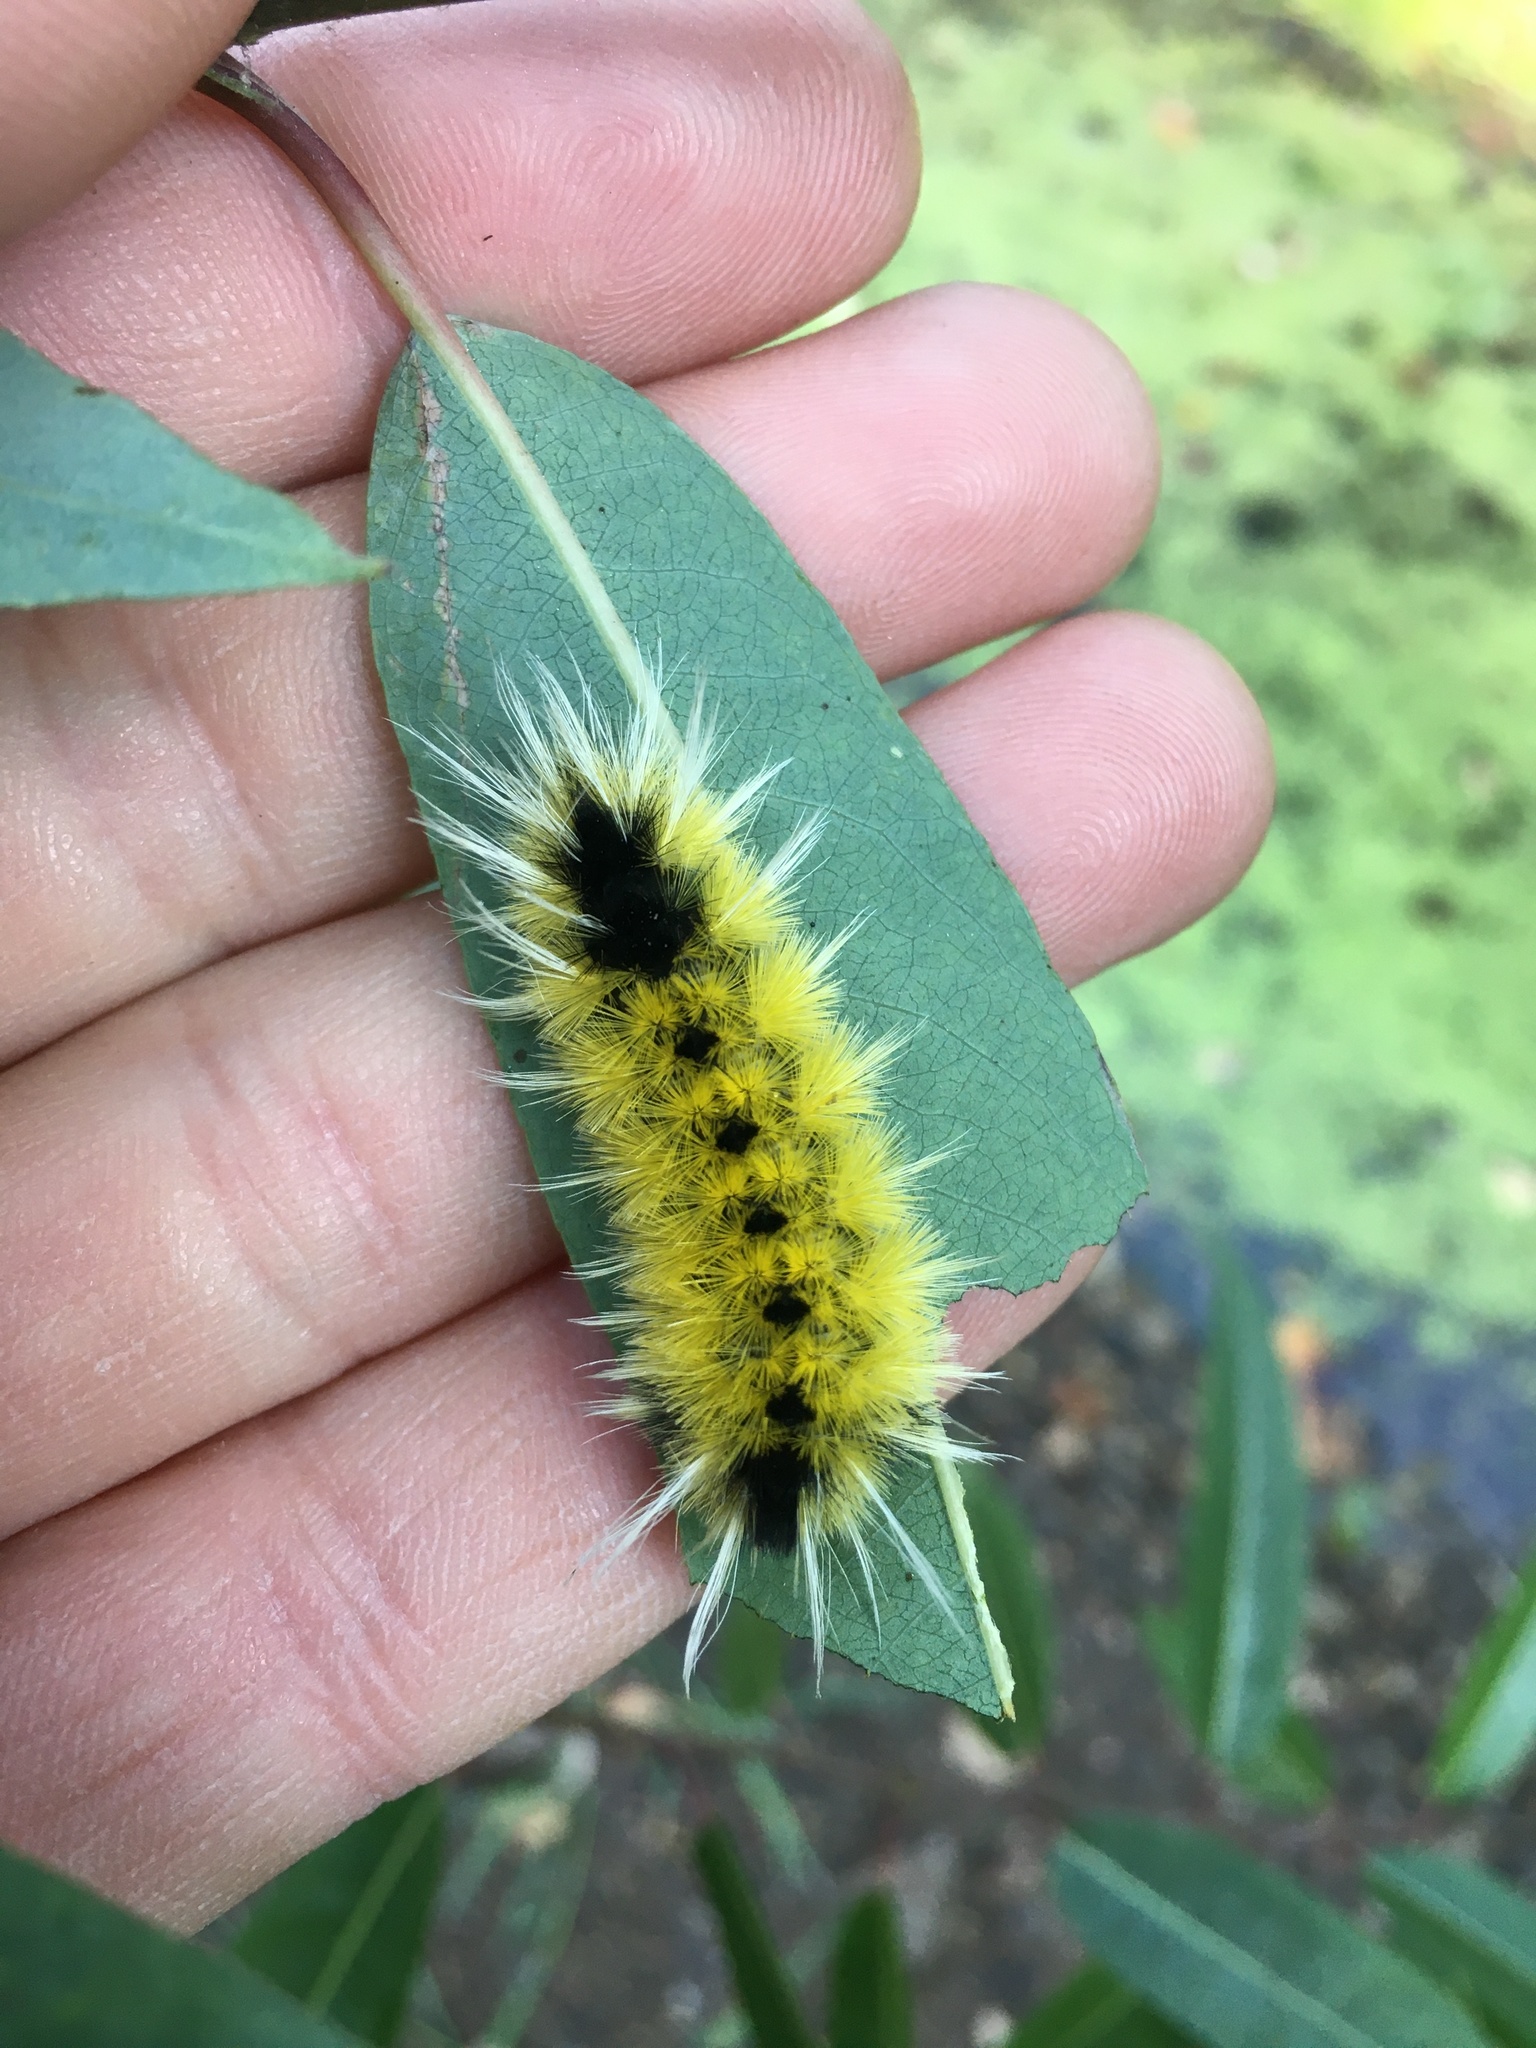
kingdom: Animalia
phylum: Arthropoda
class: Insecta
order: Lepidoptera
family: Erebidae
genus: Lophocampa
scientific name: Lophocampa maculata
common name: Spotted tussock moth
